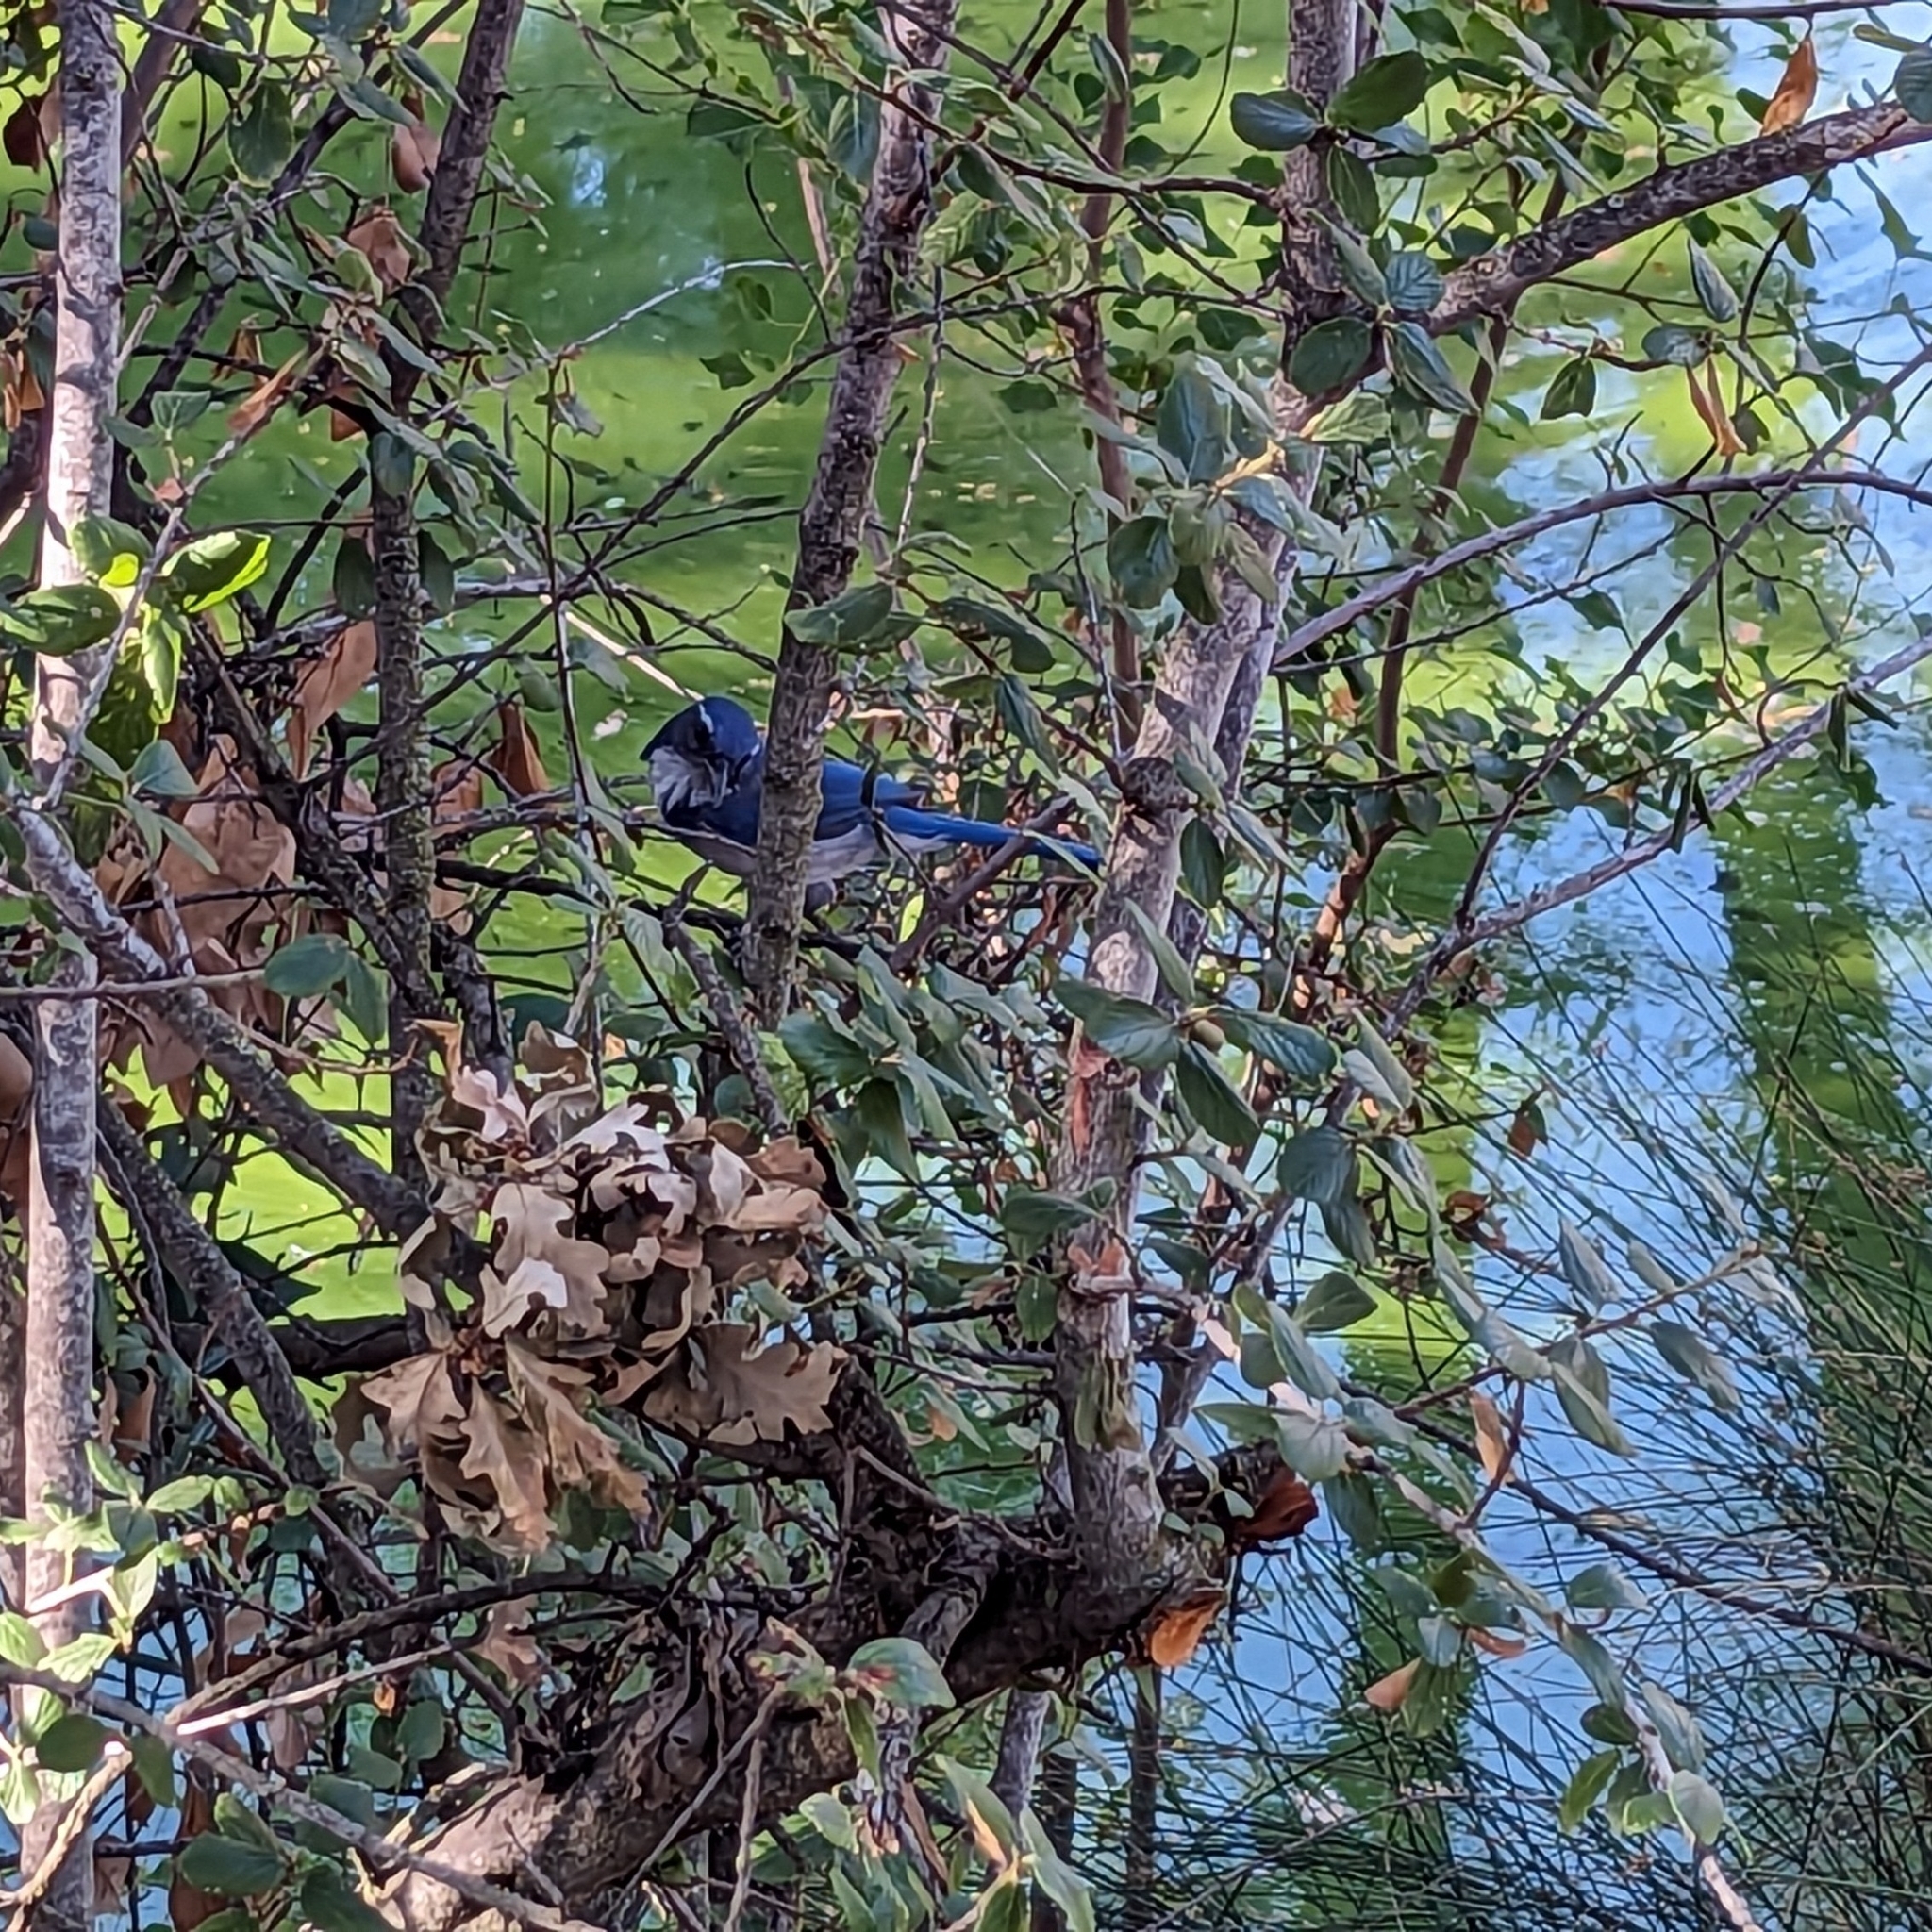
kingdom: Animalia
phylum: Chordata
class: Aves
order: Passeriformes
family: Corvidae
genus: Aphelocoma
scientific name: Aphelocoma californica
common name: California scrub-jay
